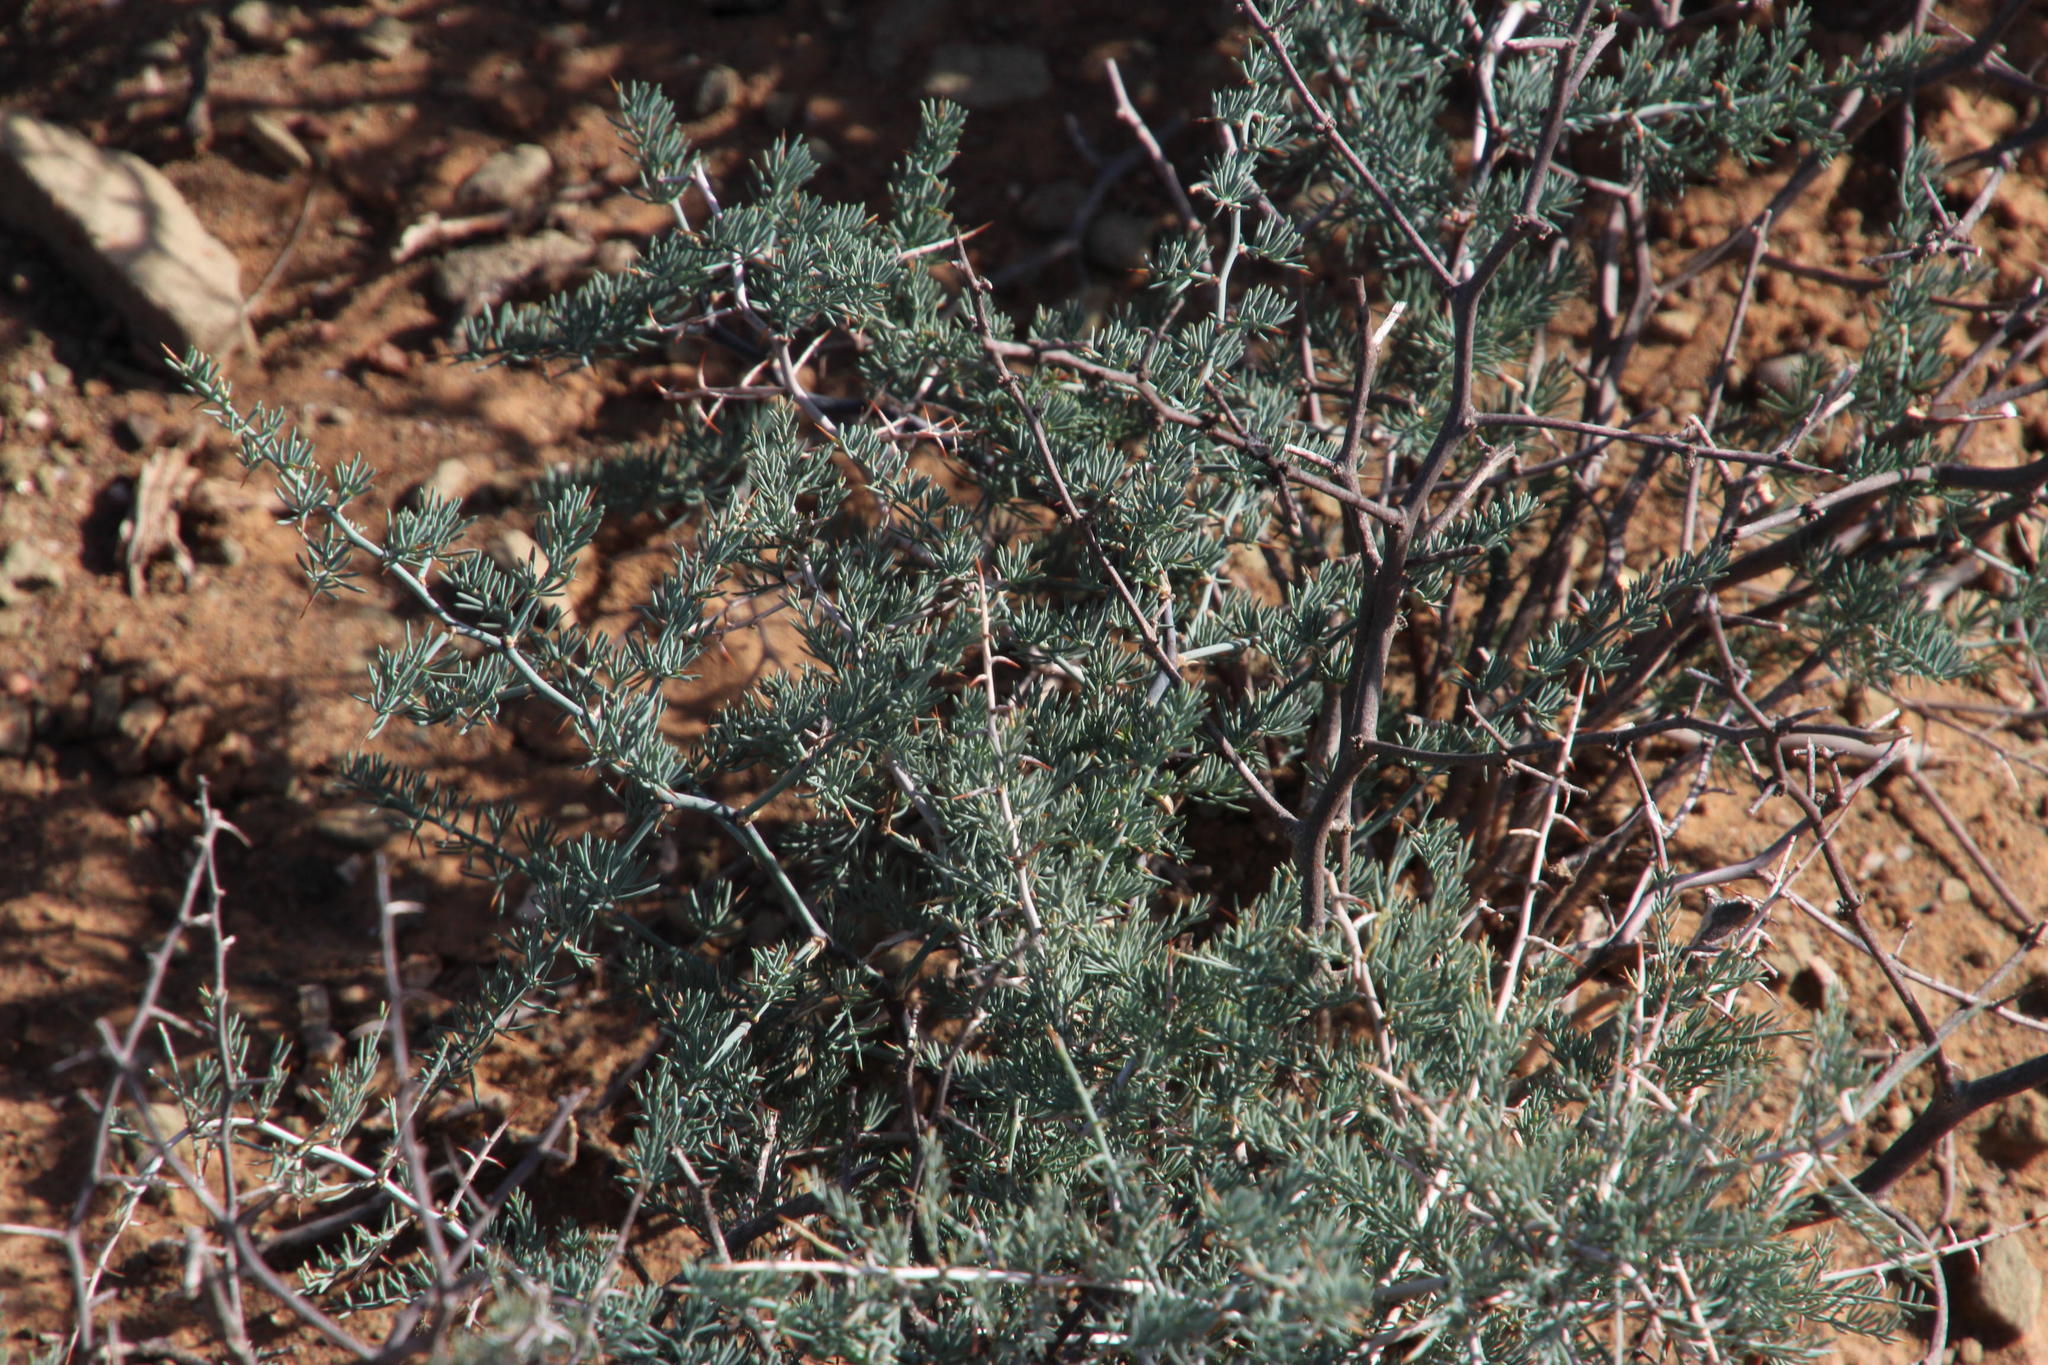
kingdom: Plantae
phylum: Tracheophyta
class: Liliopsida
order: Asparagales
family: Asparagaceae
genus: Asparagus
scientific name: Asparagus glaucus
